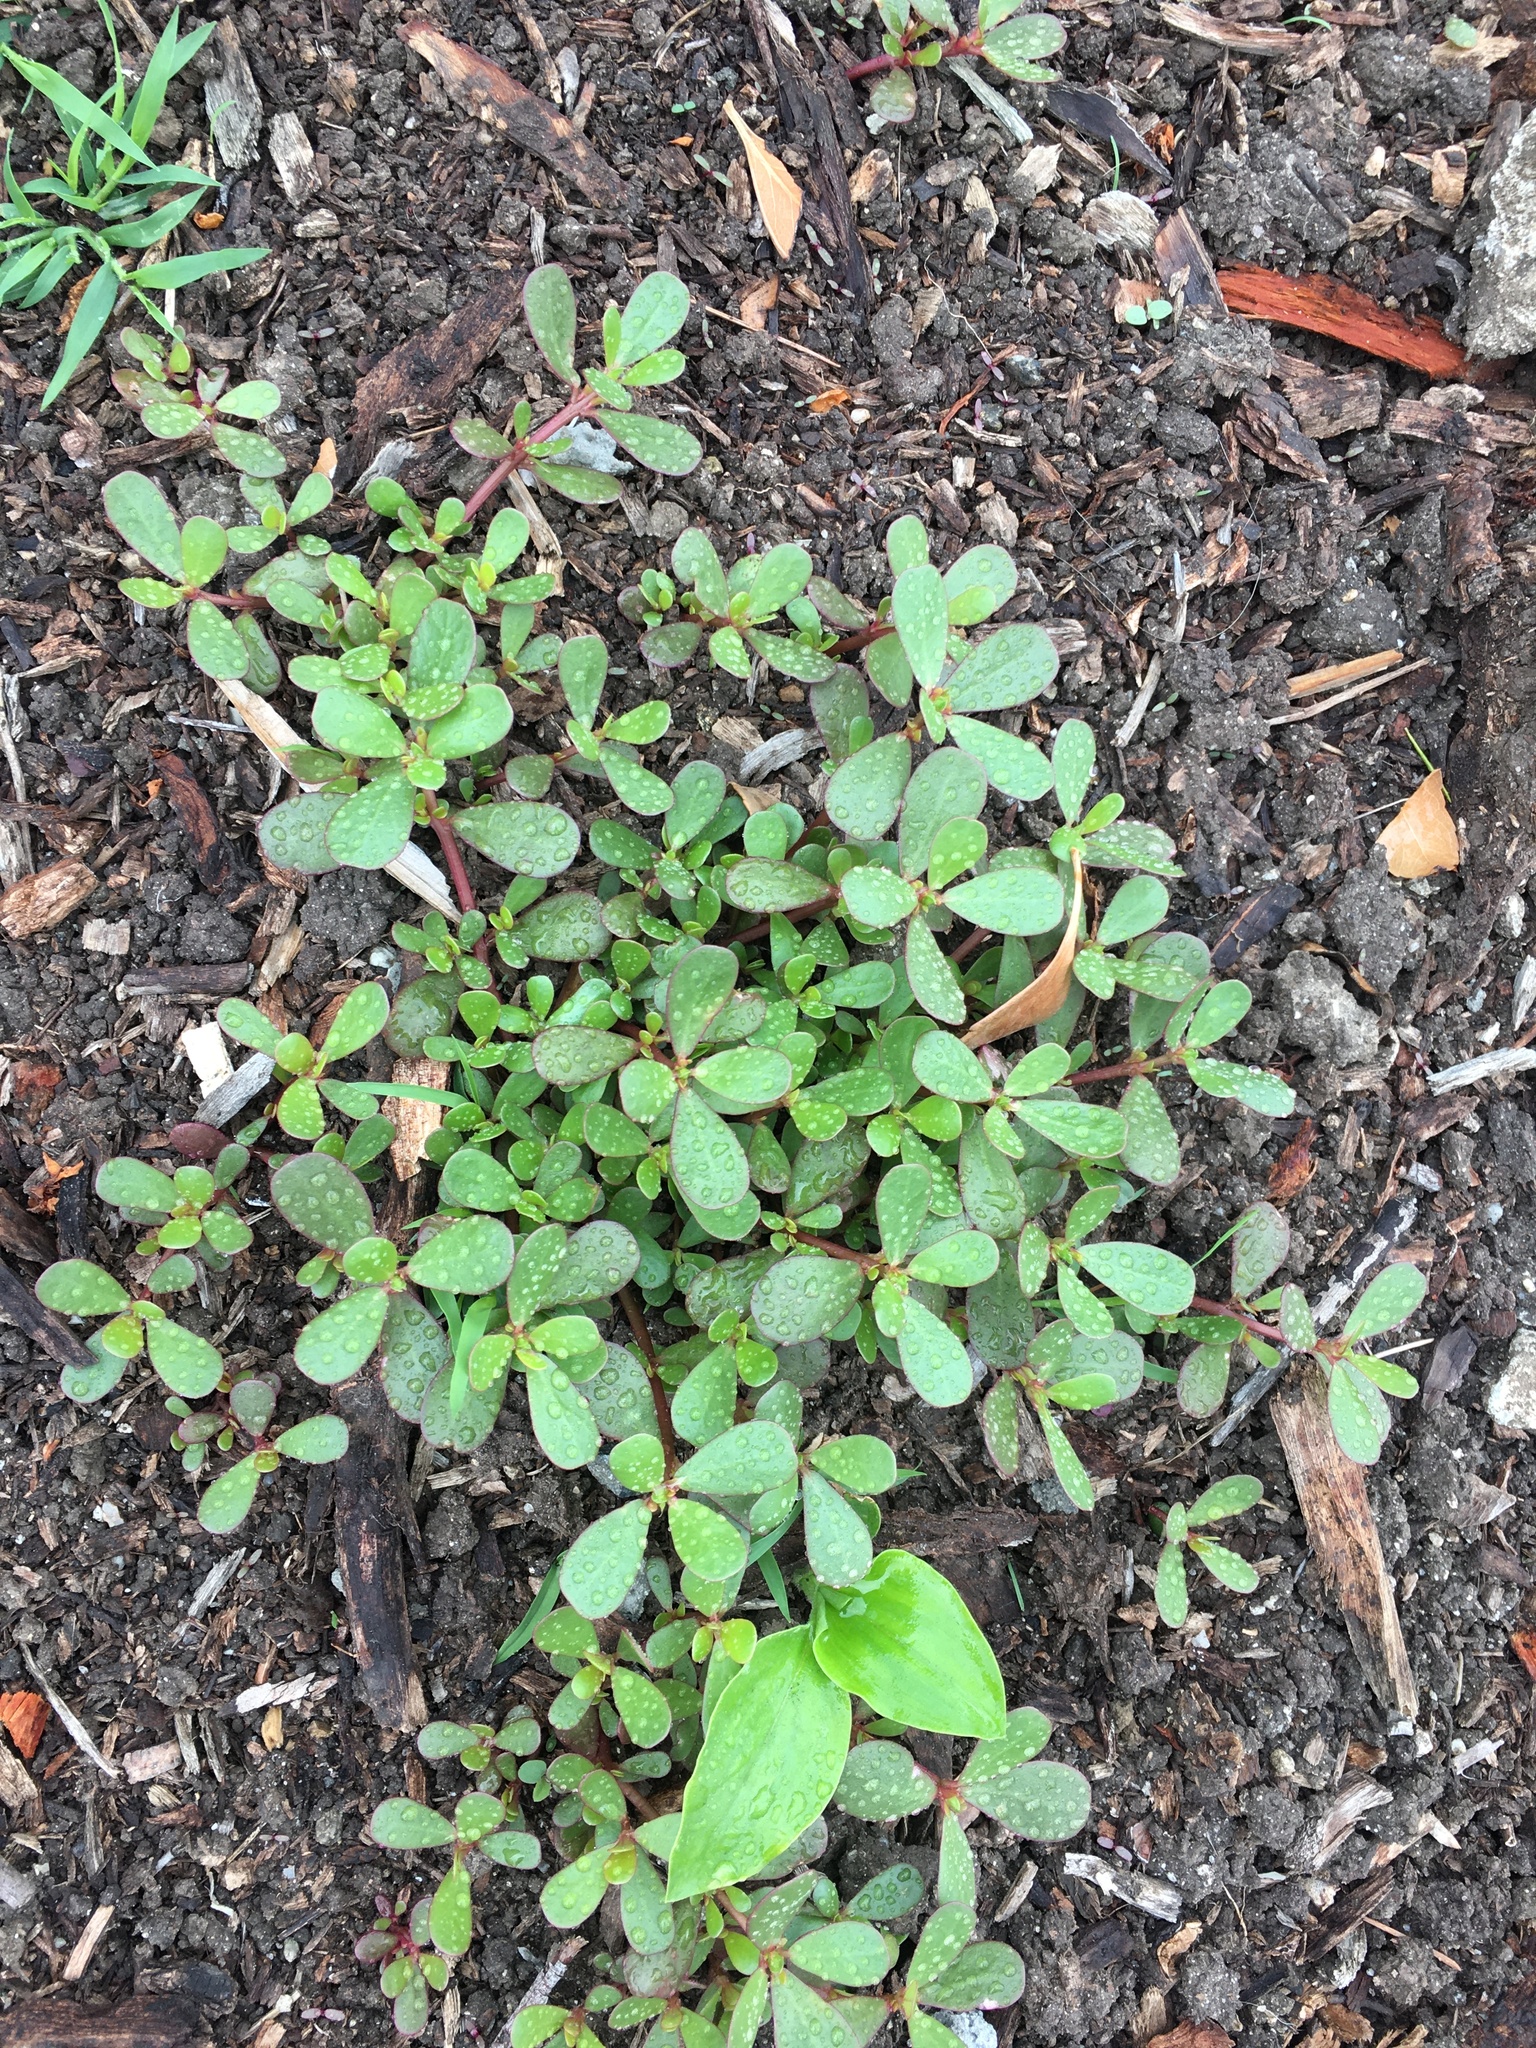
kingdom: Plantae
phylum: Tracheophyta
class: Magnoliopsida
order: Caryophyllales
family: Portulacaceae
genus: Portulaca
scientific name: Portulaca oleracea
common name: Common purslane
